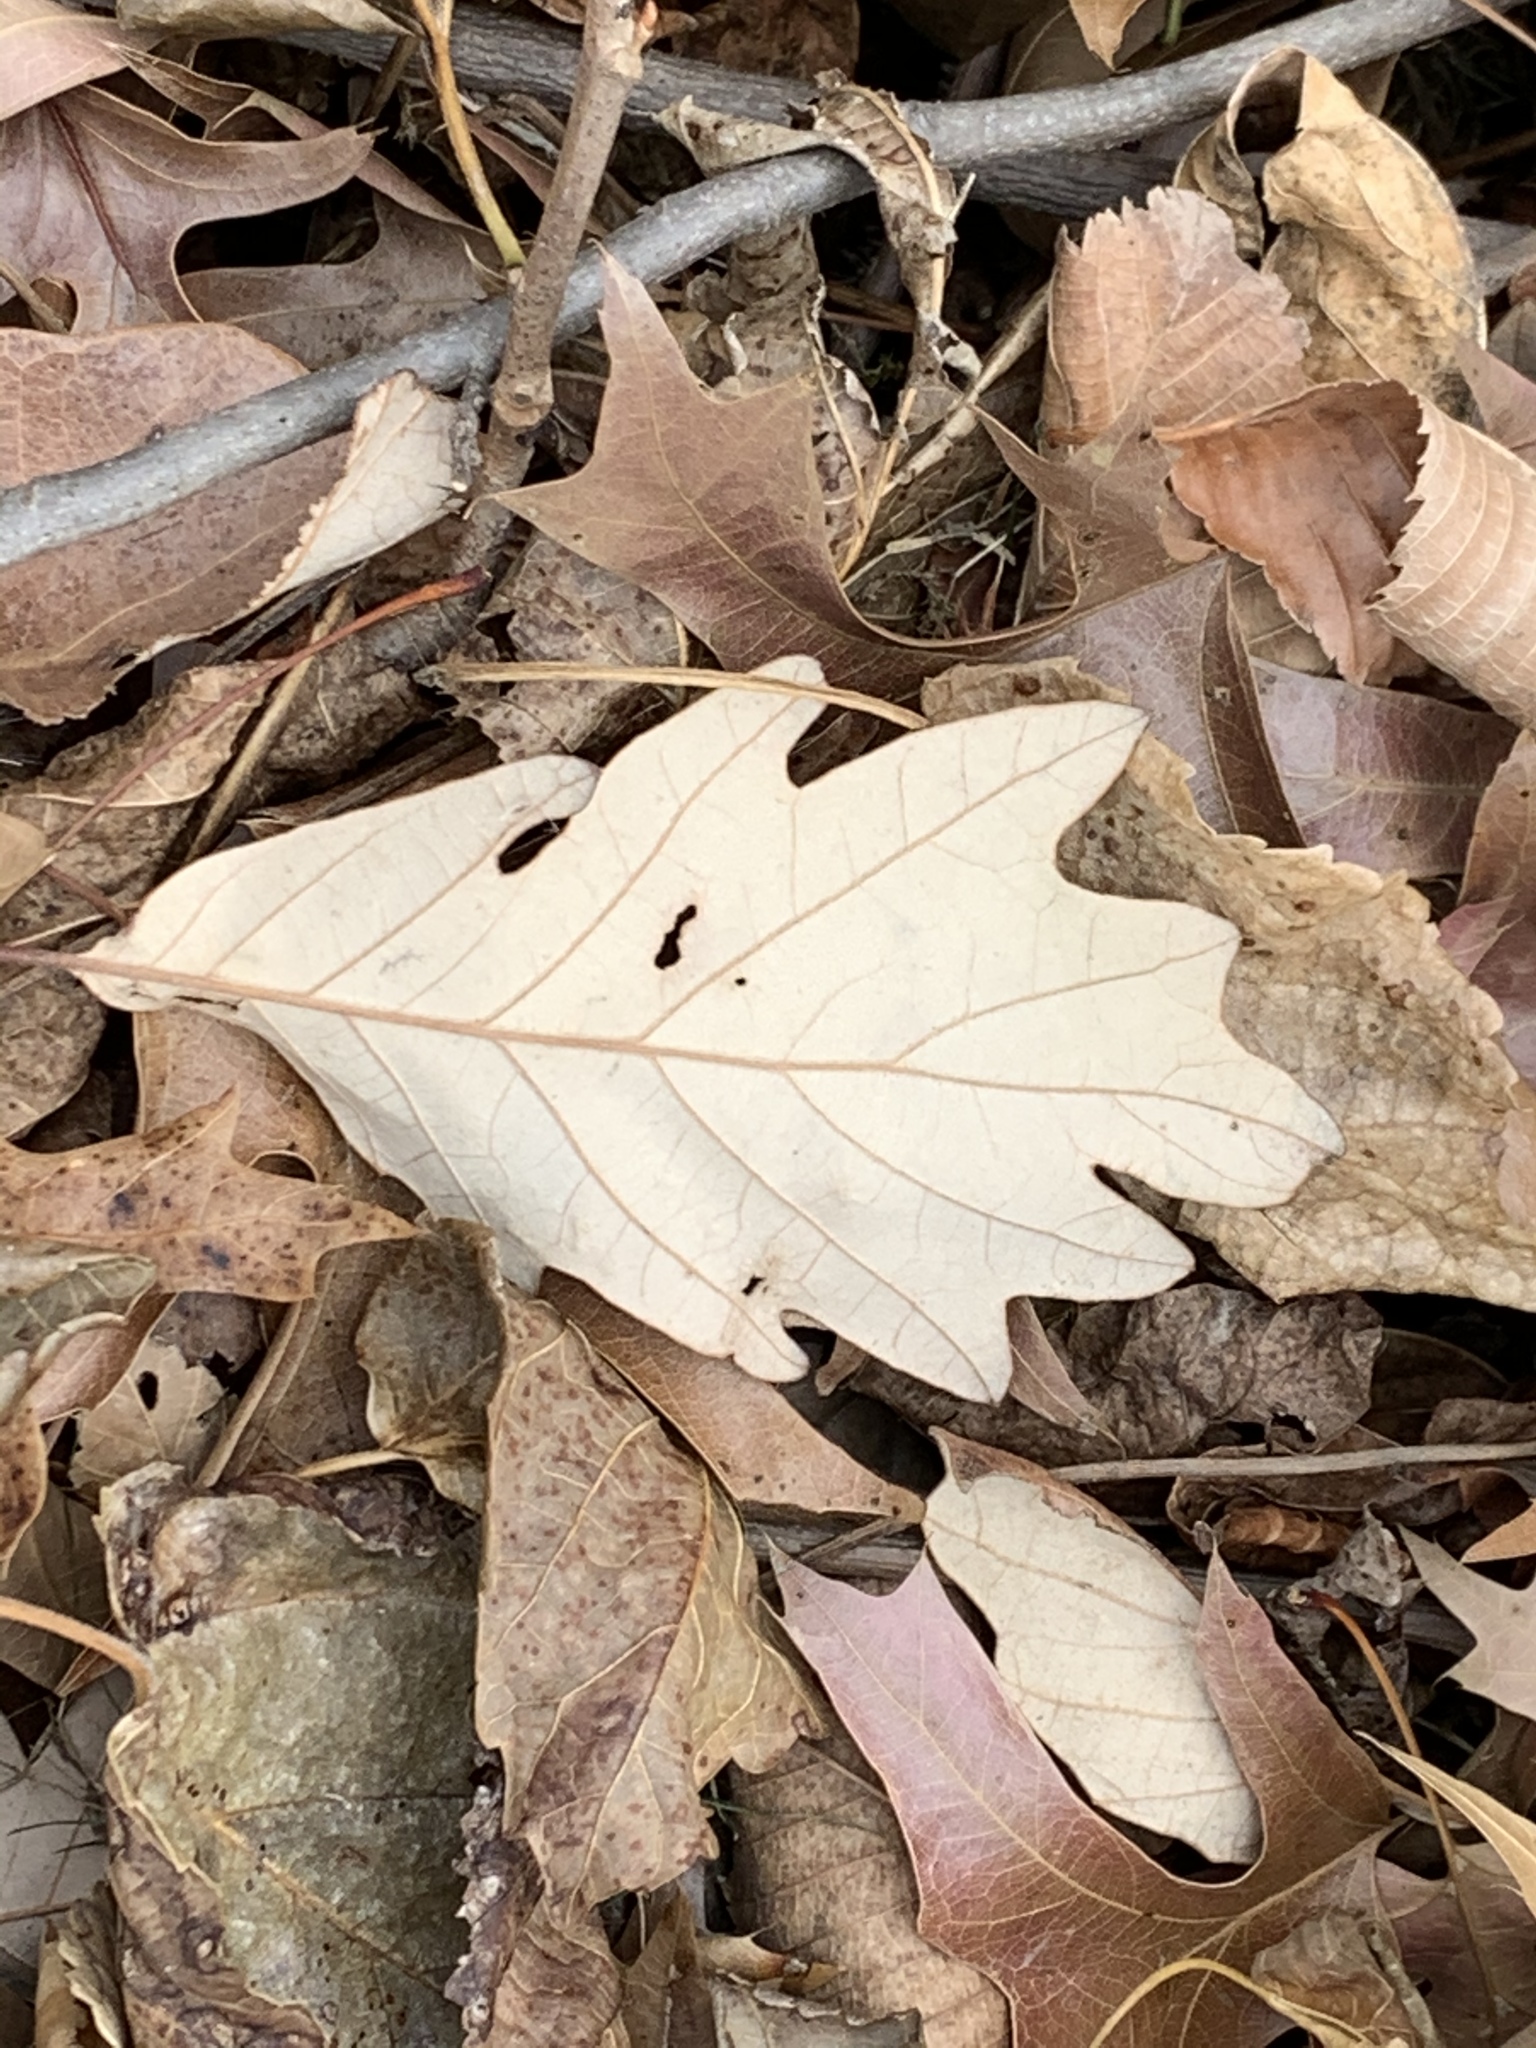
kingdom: Plantae
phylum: Tracheophyta
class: Magnoliopsida
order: Fagales
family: Fagaceae
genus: Quercus
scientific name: Quercus bicolor
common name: Swamp white oak
